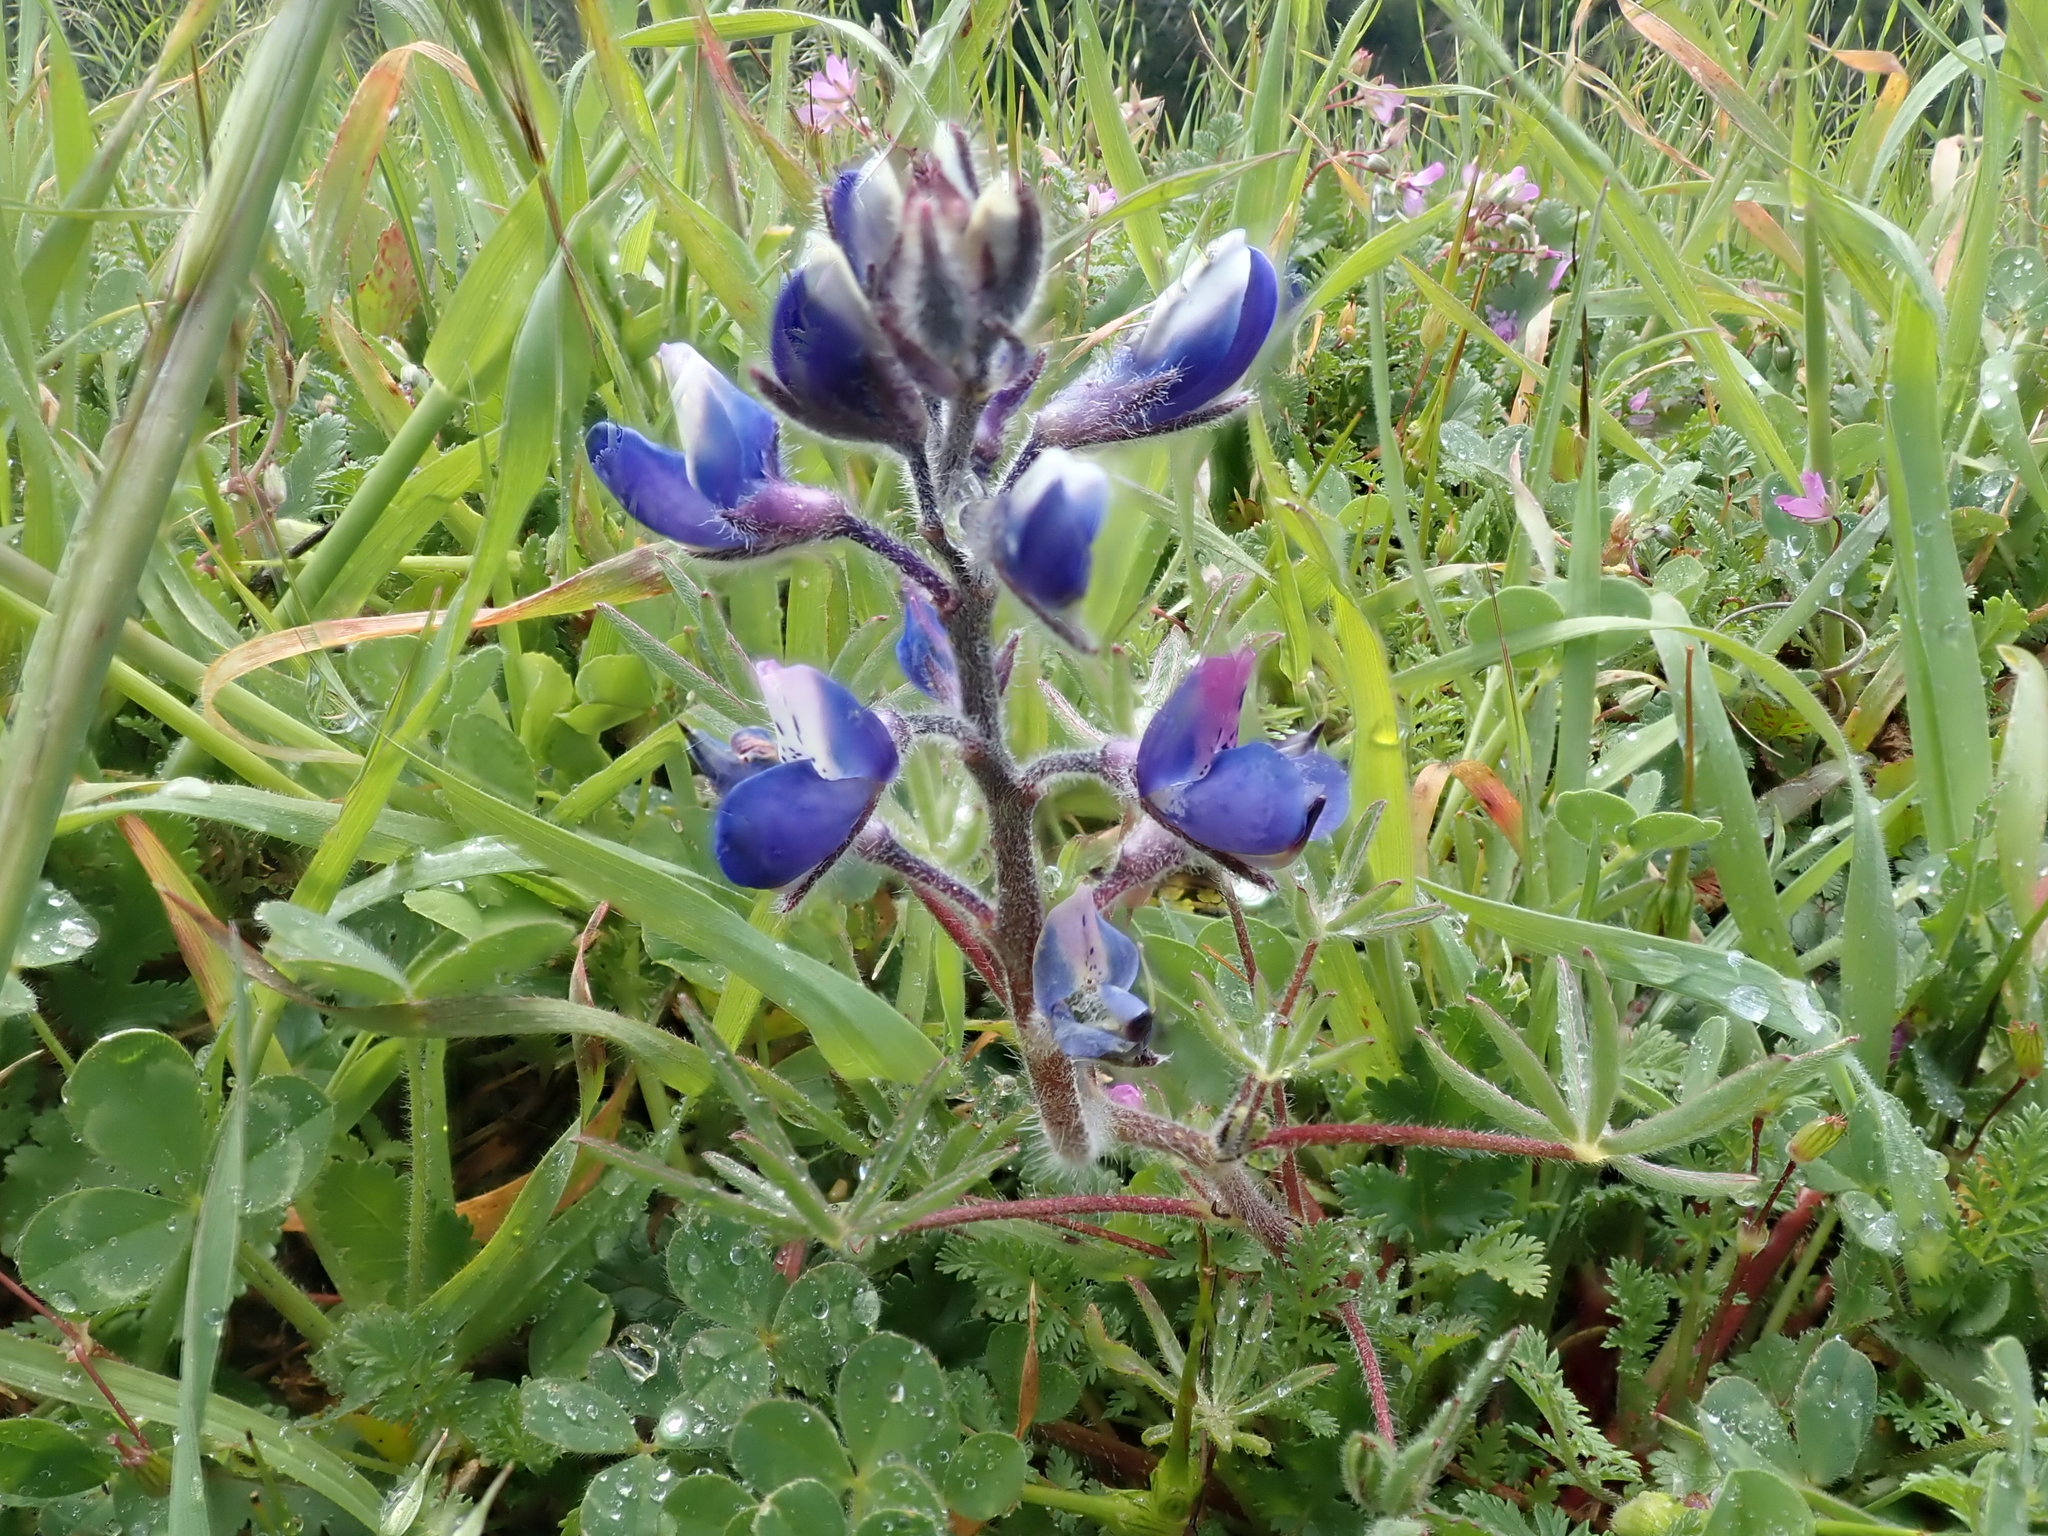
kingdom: Plantae
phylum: Tracheophyta
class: Magnoliopsida
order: Fabales
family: Fabaceae
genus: Lupinus
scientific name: Lupinus bicolor
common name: Miniature lupine
